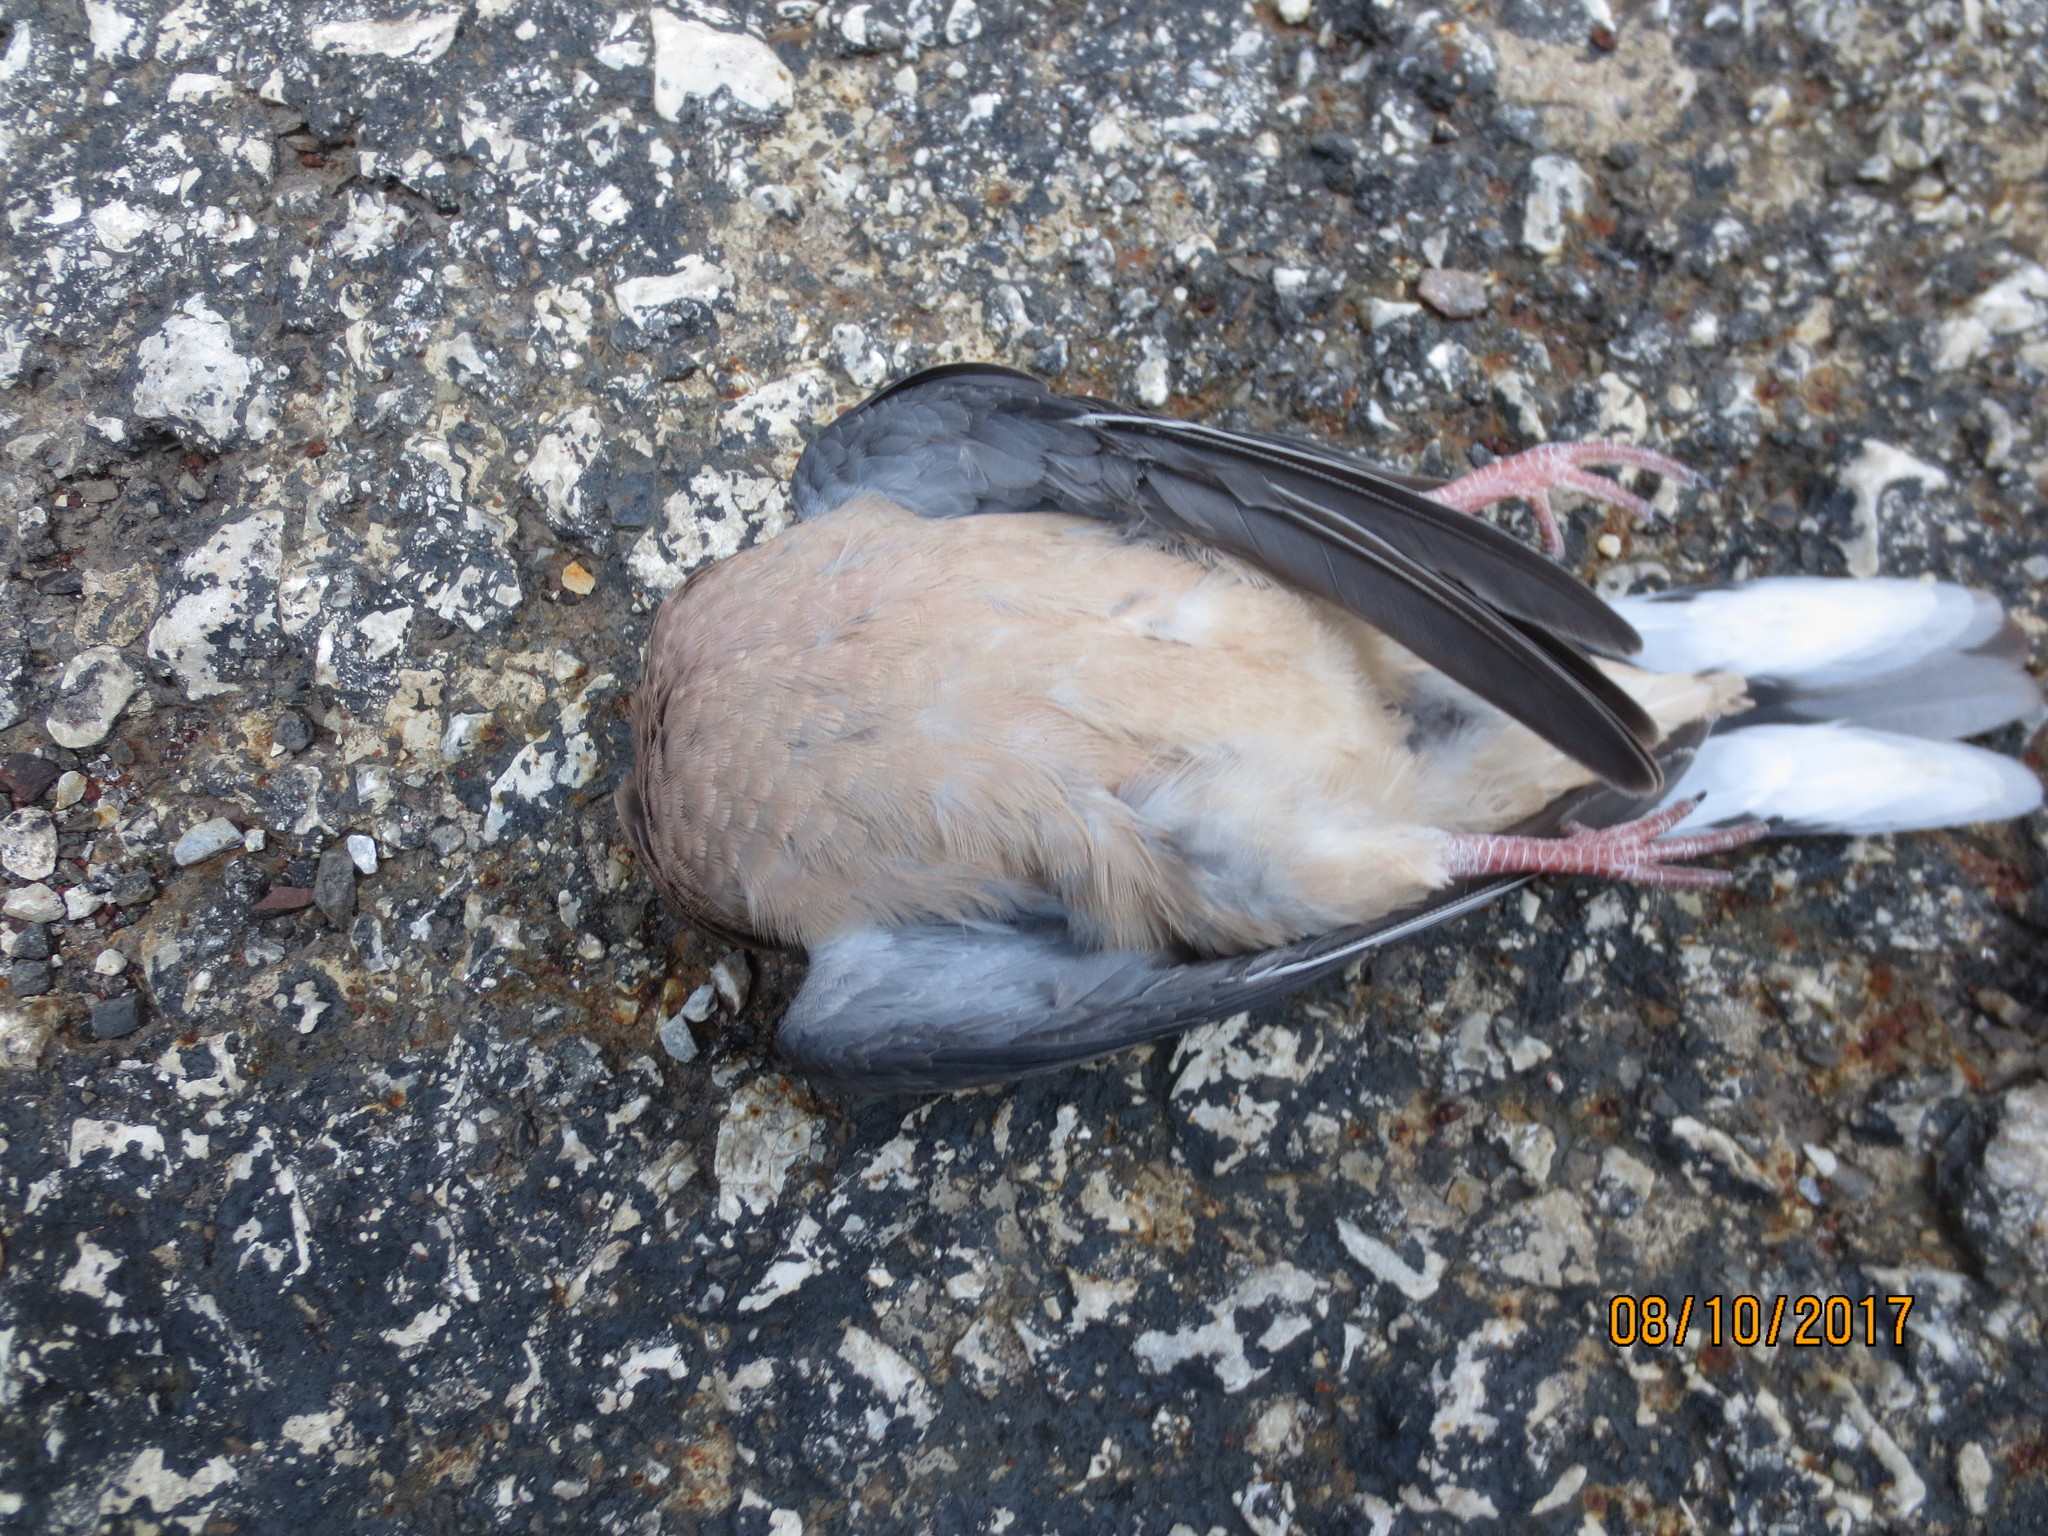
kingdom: Animalia
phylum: Chordata
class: Aves
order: Columbiformes
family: Columbidae
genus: Zenaida
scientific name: Zenaida macroura
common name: Mourning dove
